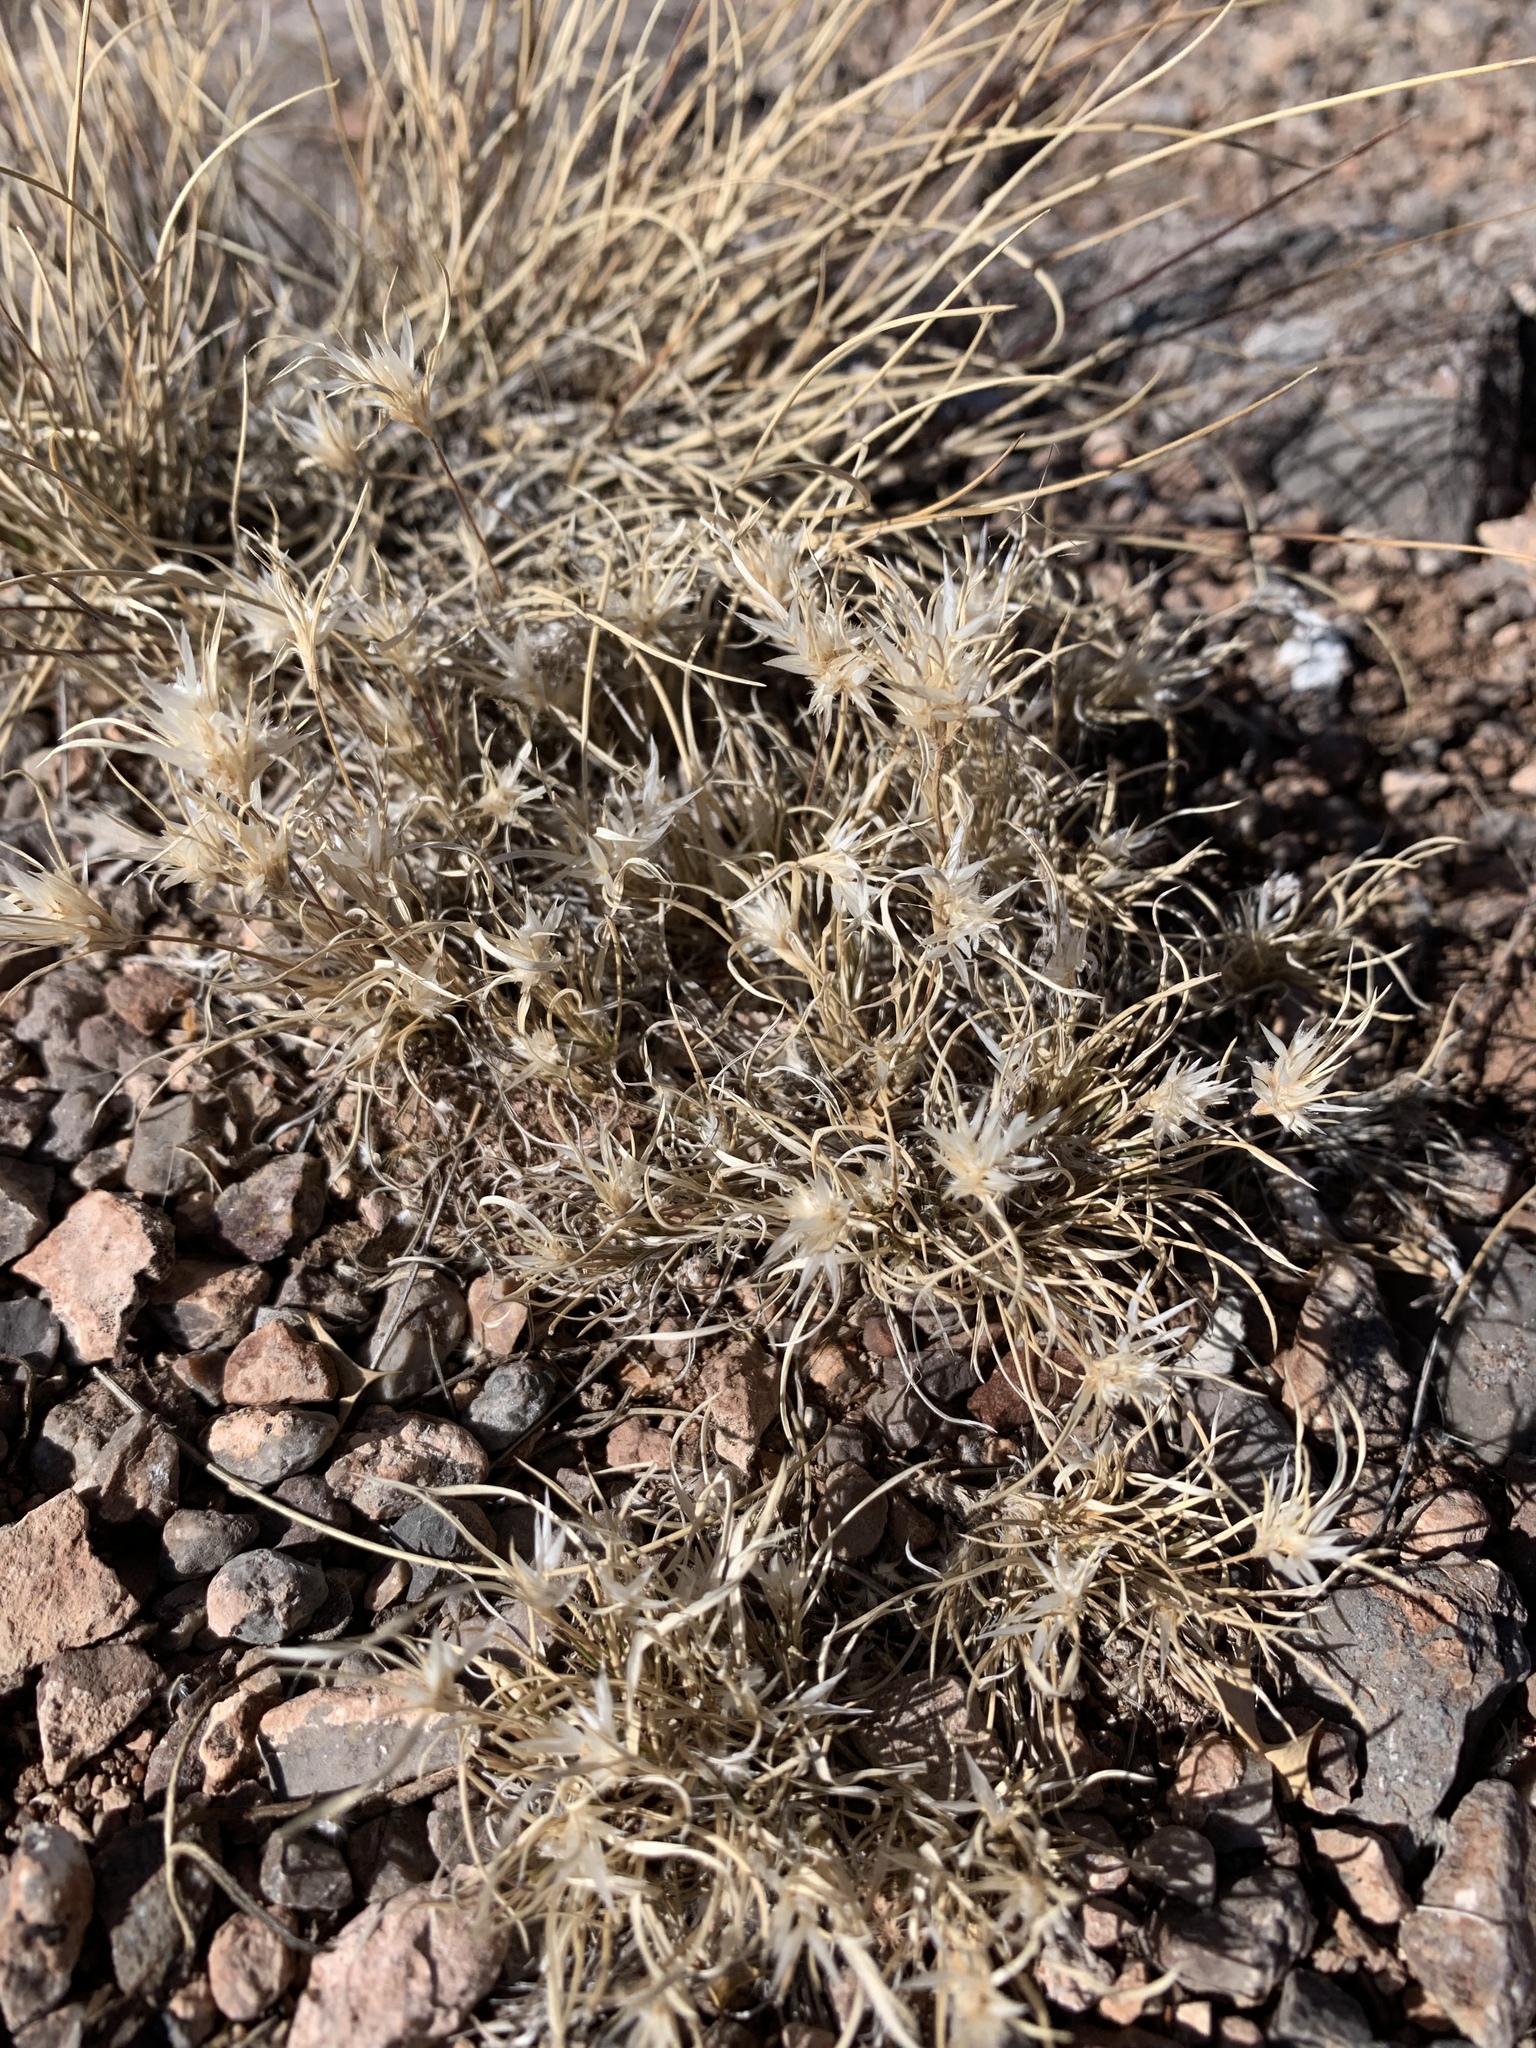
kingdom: Plantae
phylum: Tracheophyta
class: Liliopsida
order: Poales
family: Poaceae
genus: Dasyochloa
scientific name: Dasyochloa pulchella
